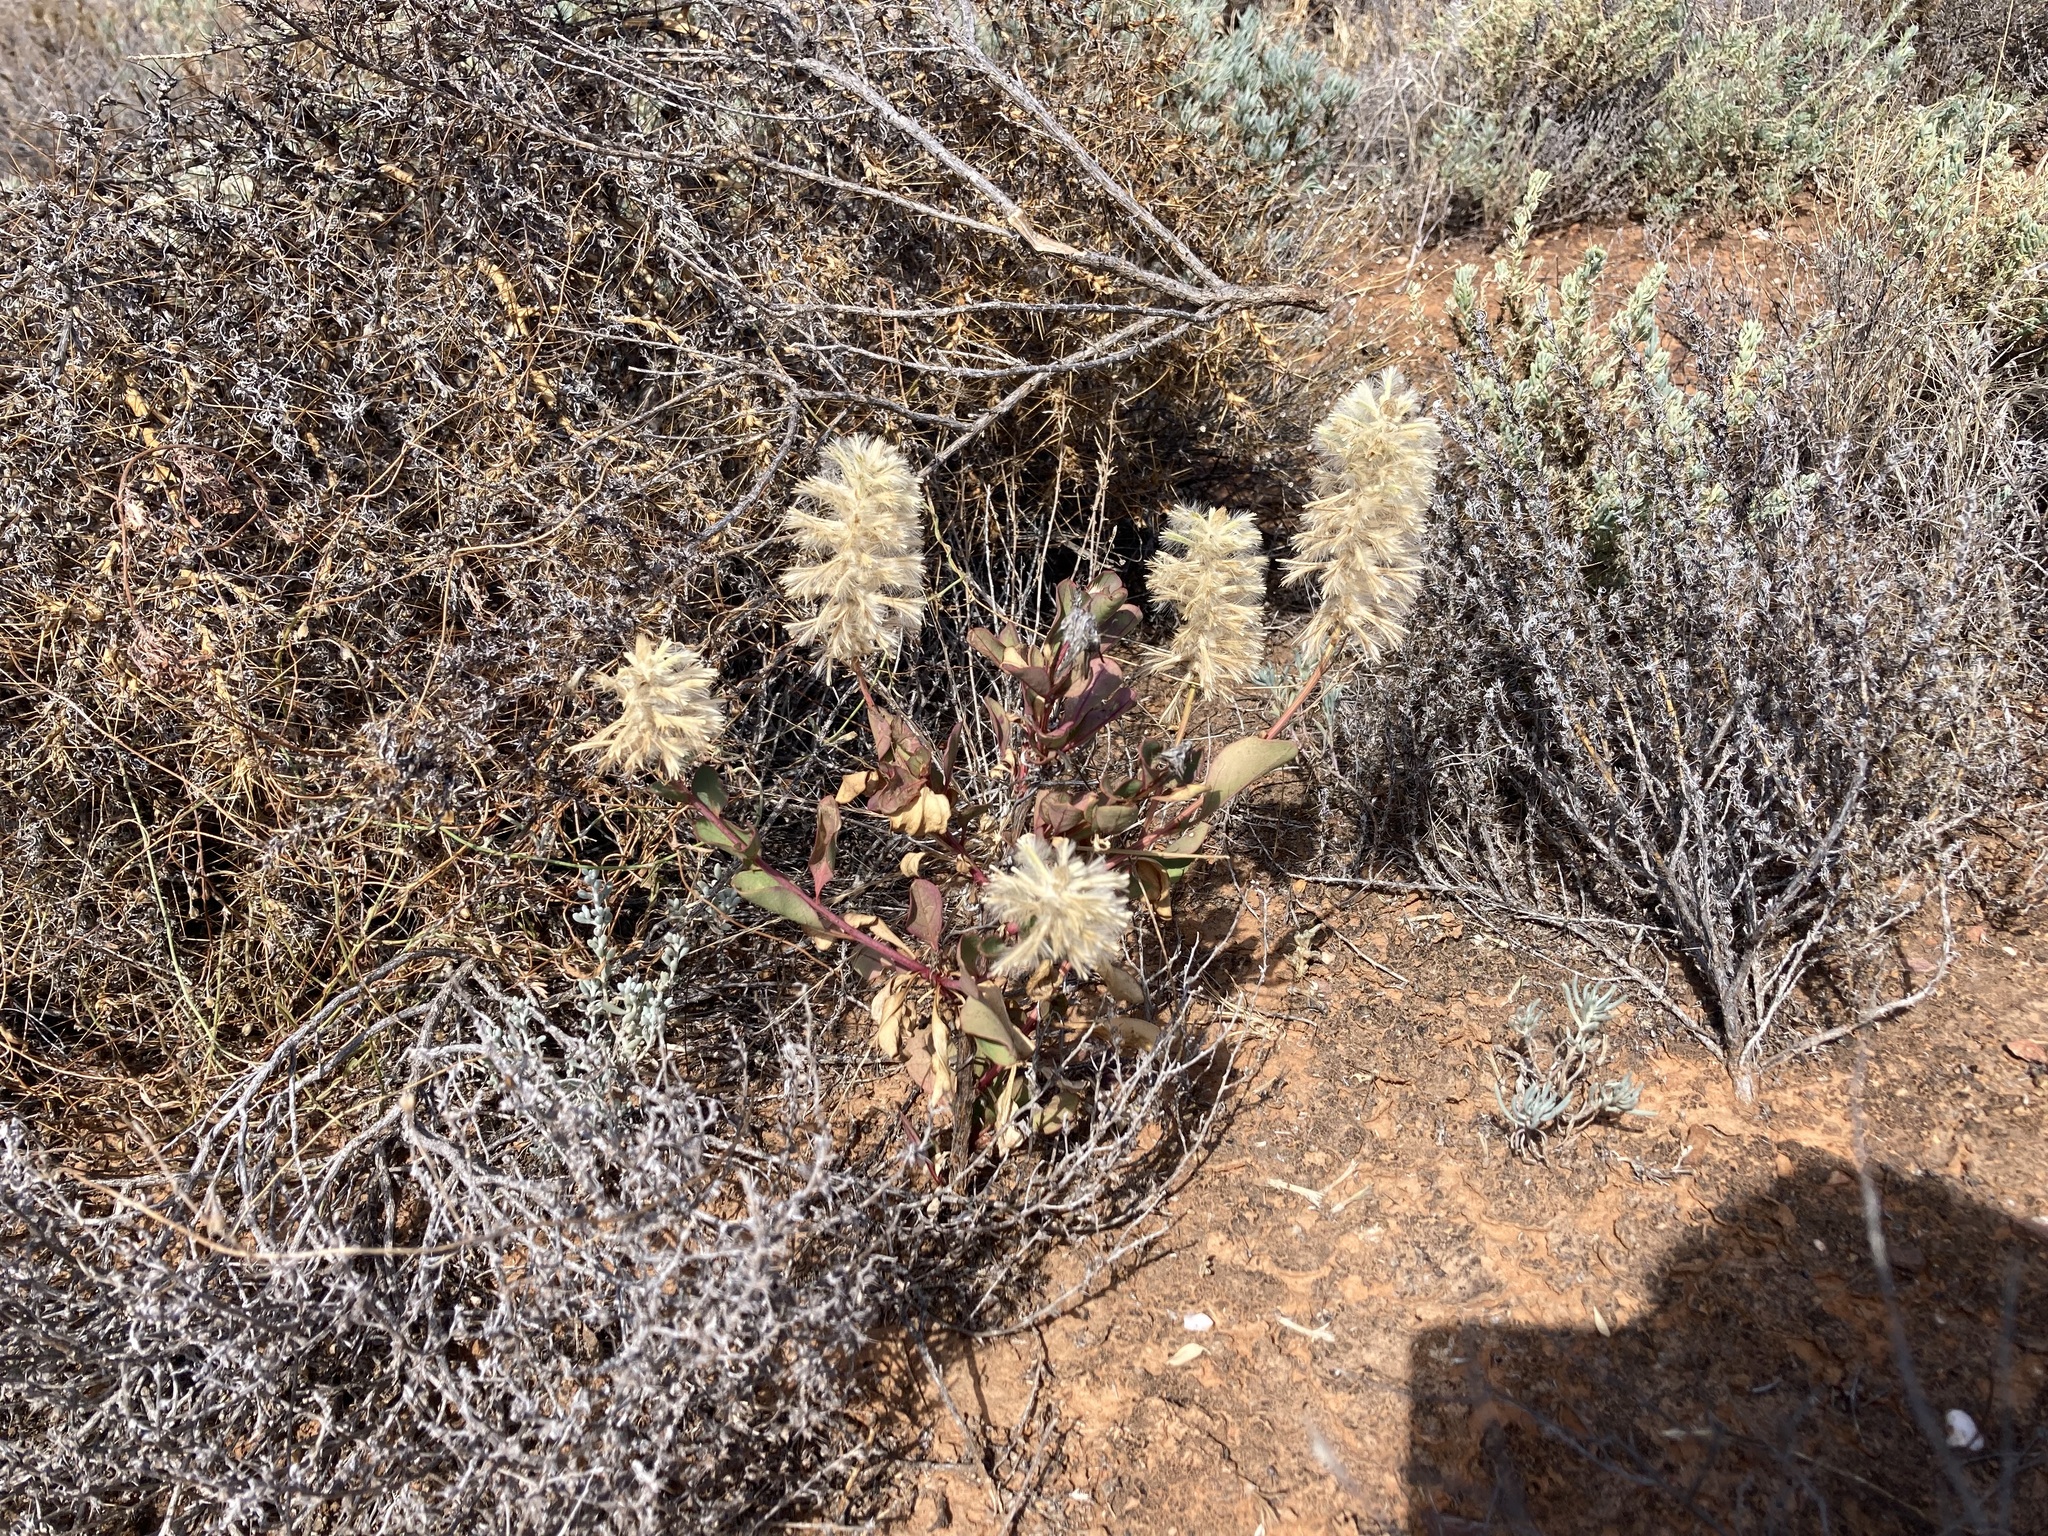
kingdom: Plantae
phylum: Tracheophyta
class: Magnoliopsida
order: Caryophyllales
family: Amaranthaceae
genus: Ptilotus
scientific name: Ptilotus nobilis
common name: Regal-foxtail
